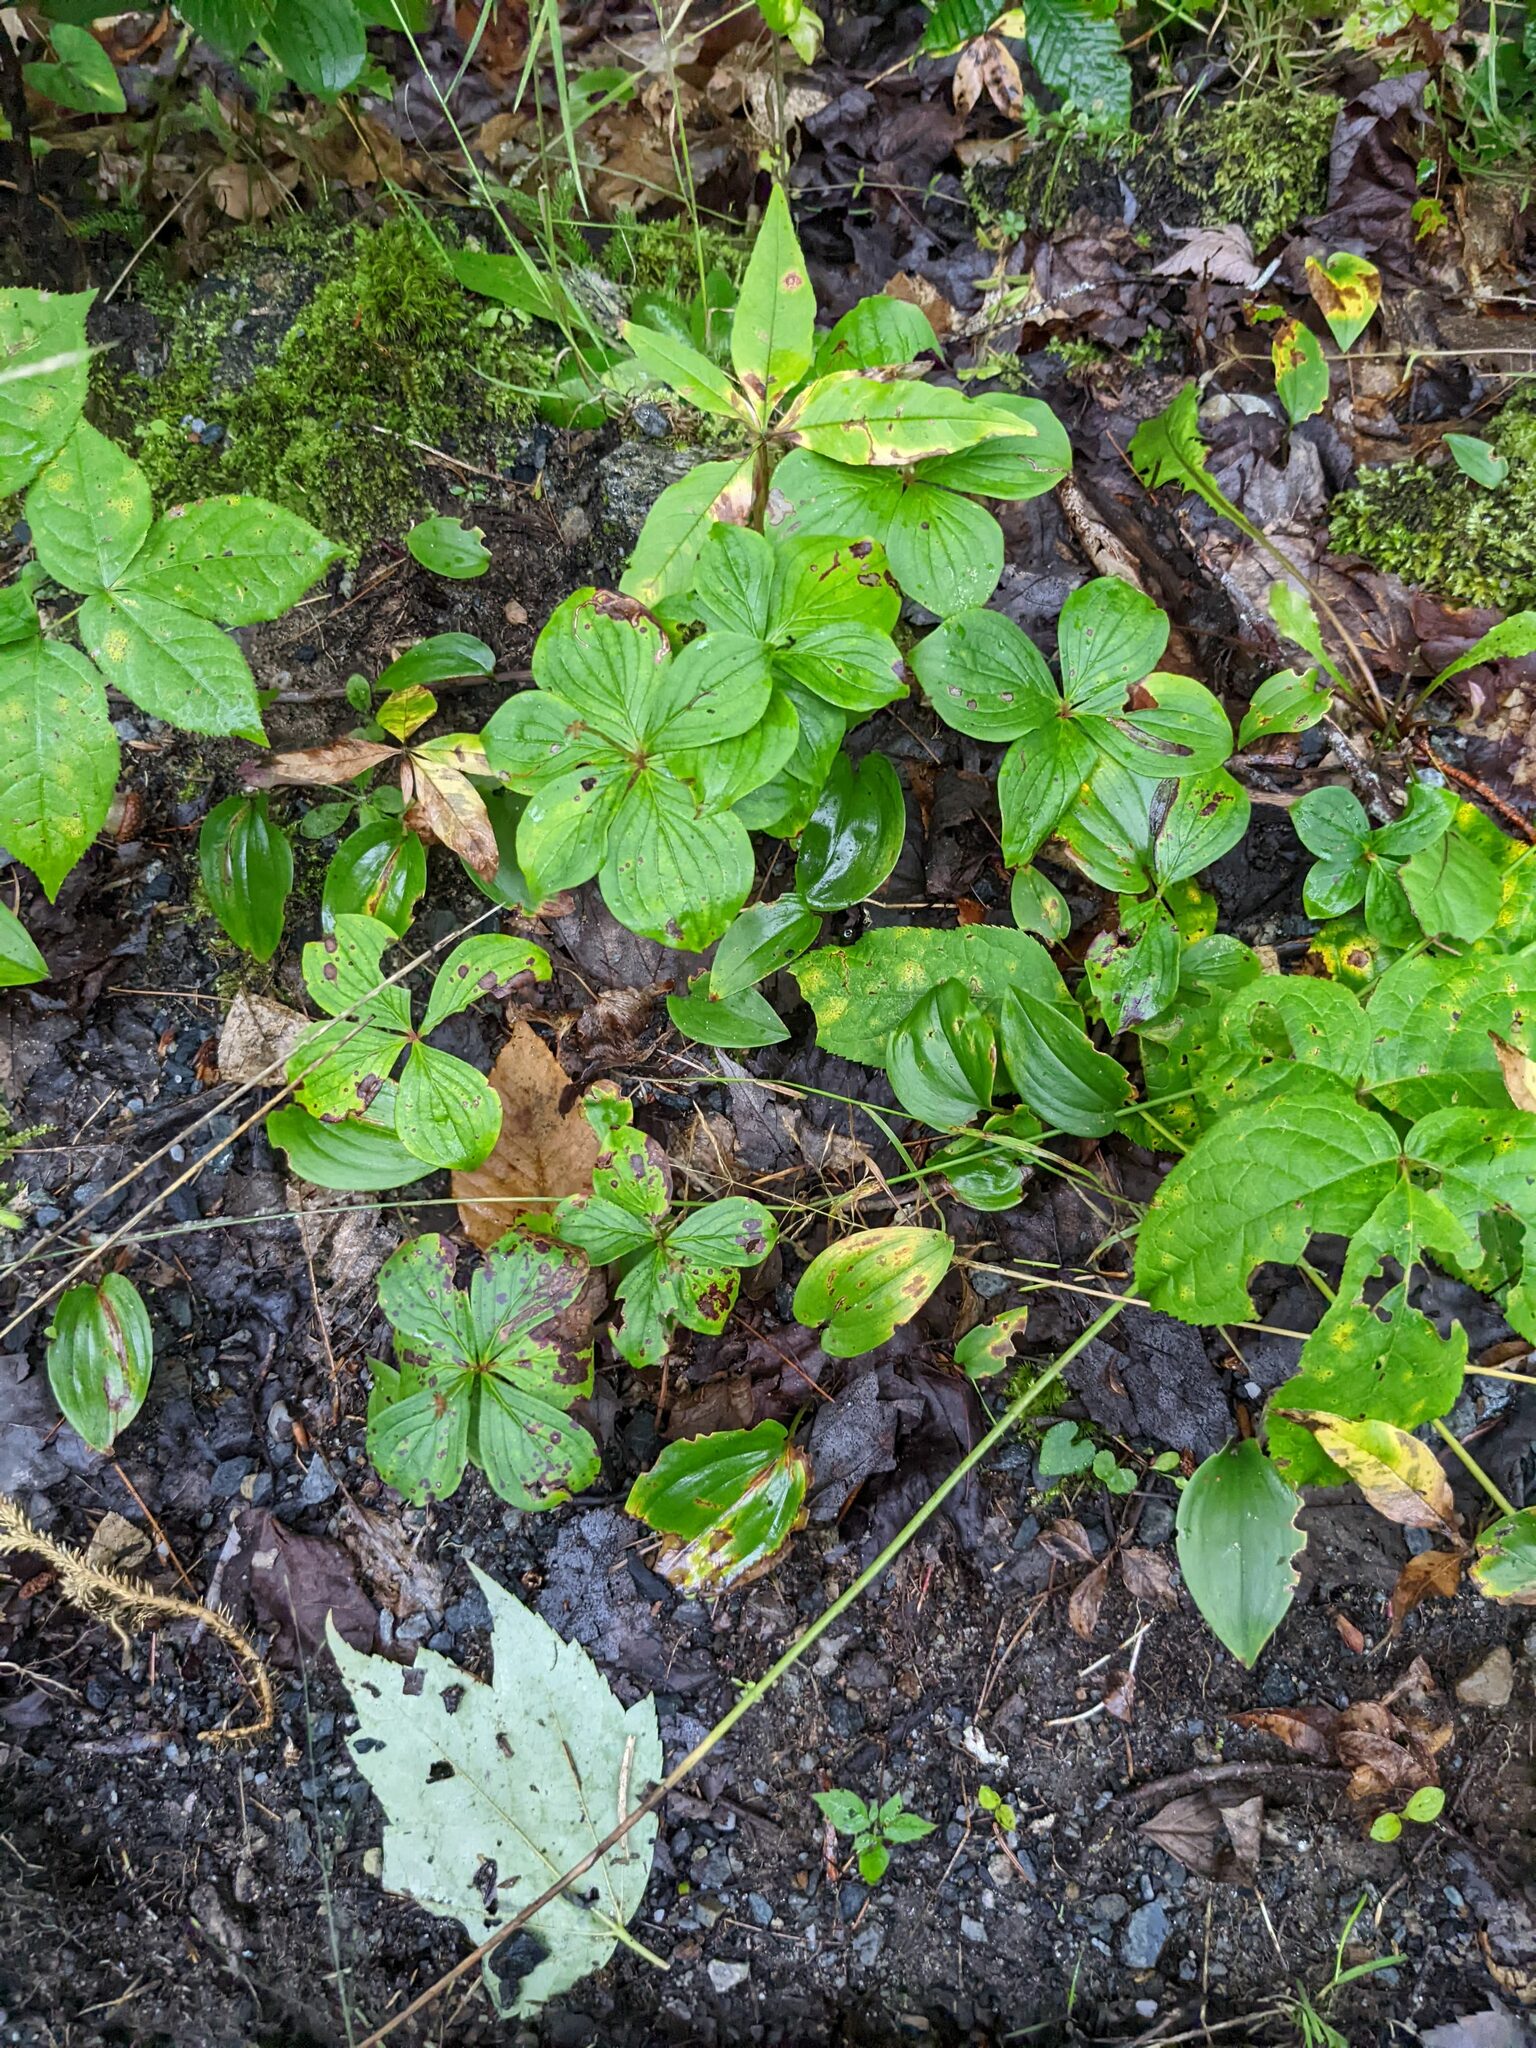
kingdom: Plantae
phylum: Tracheophyta
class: Magnoliopsida
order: Cornales
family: Cornaceae
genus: Cornus
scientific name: Cornus canadensis
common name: Creeping dogwood
